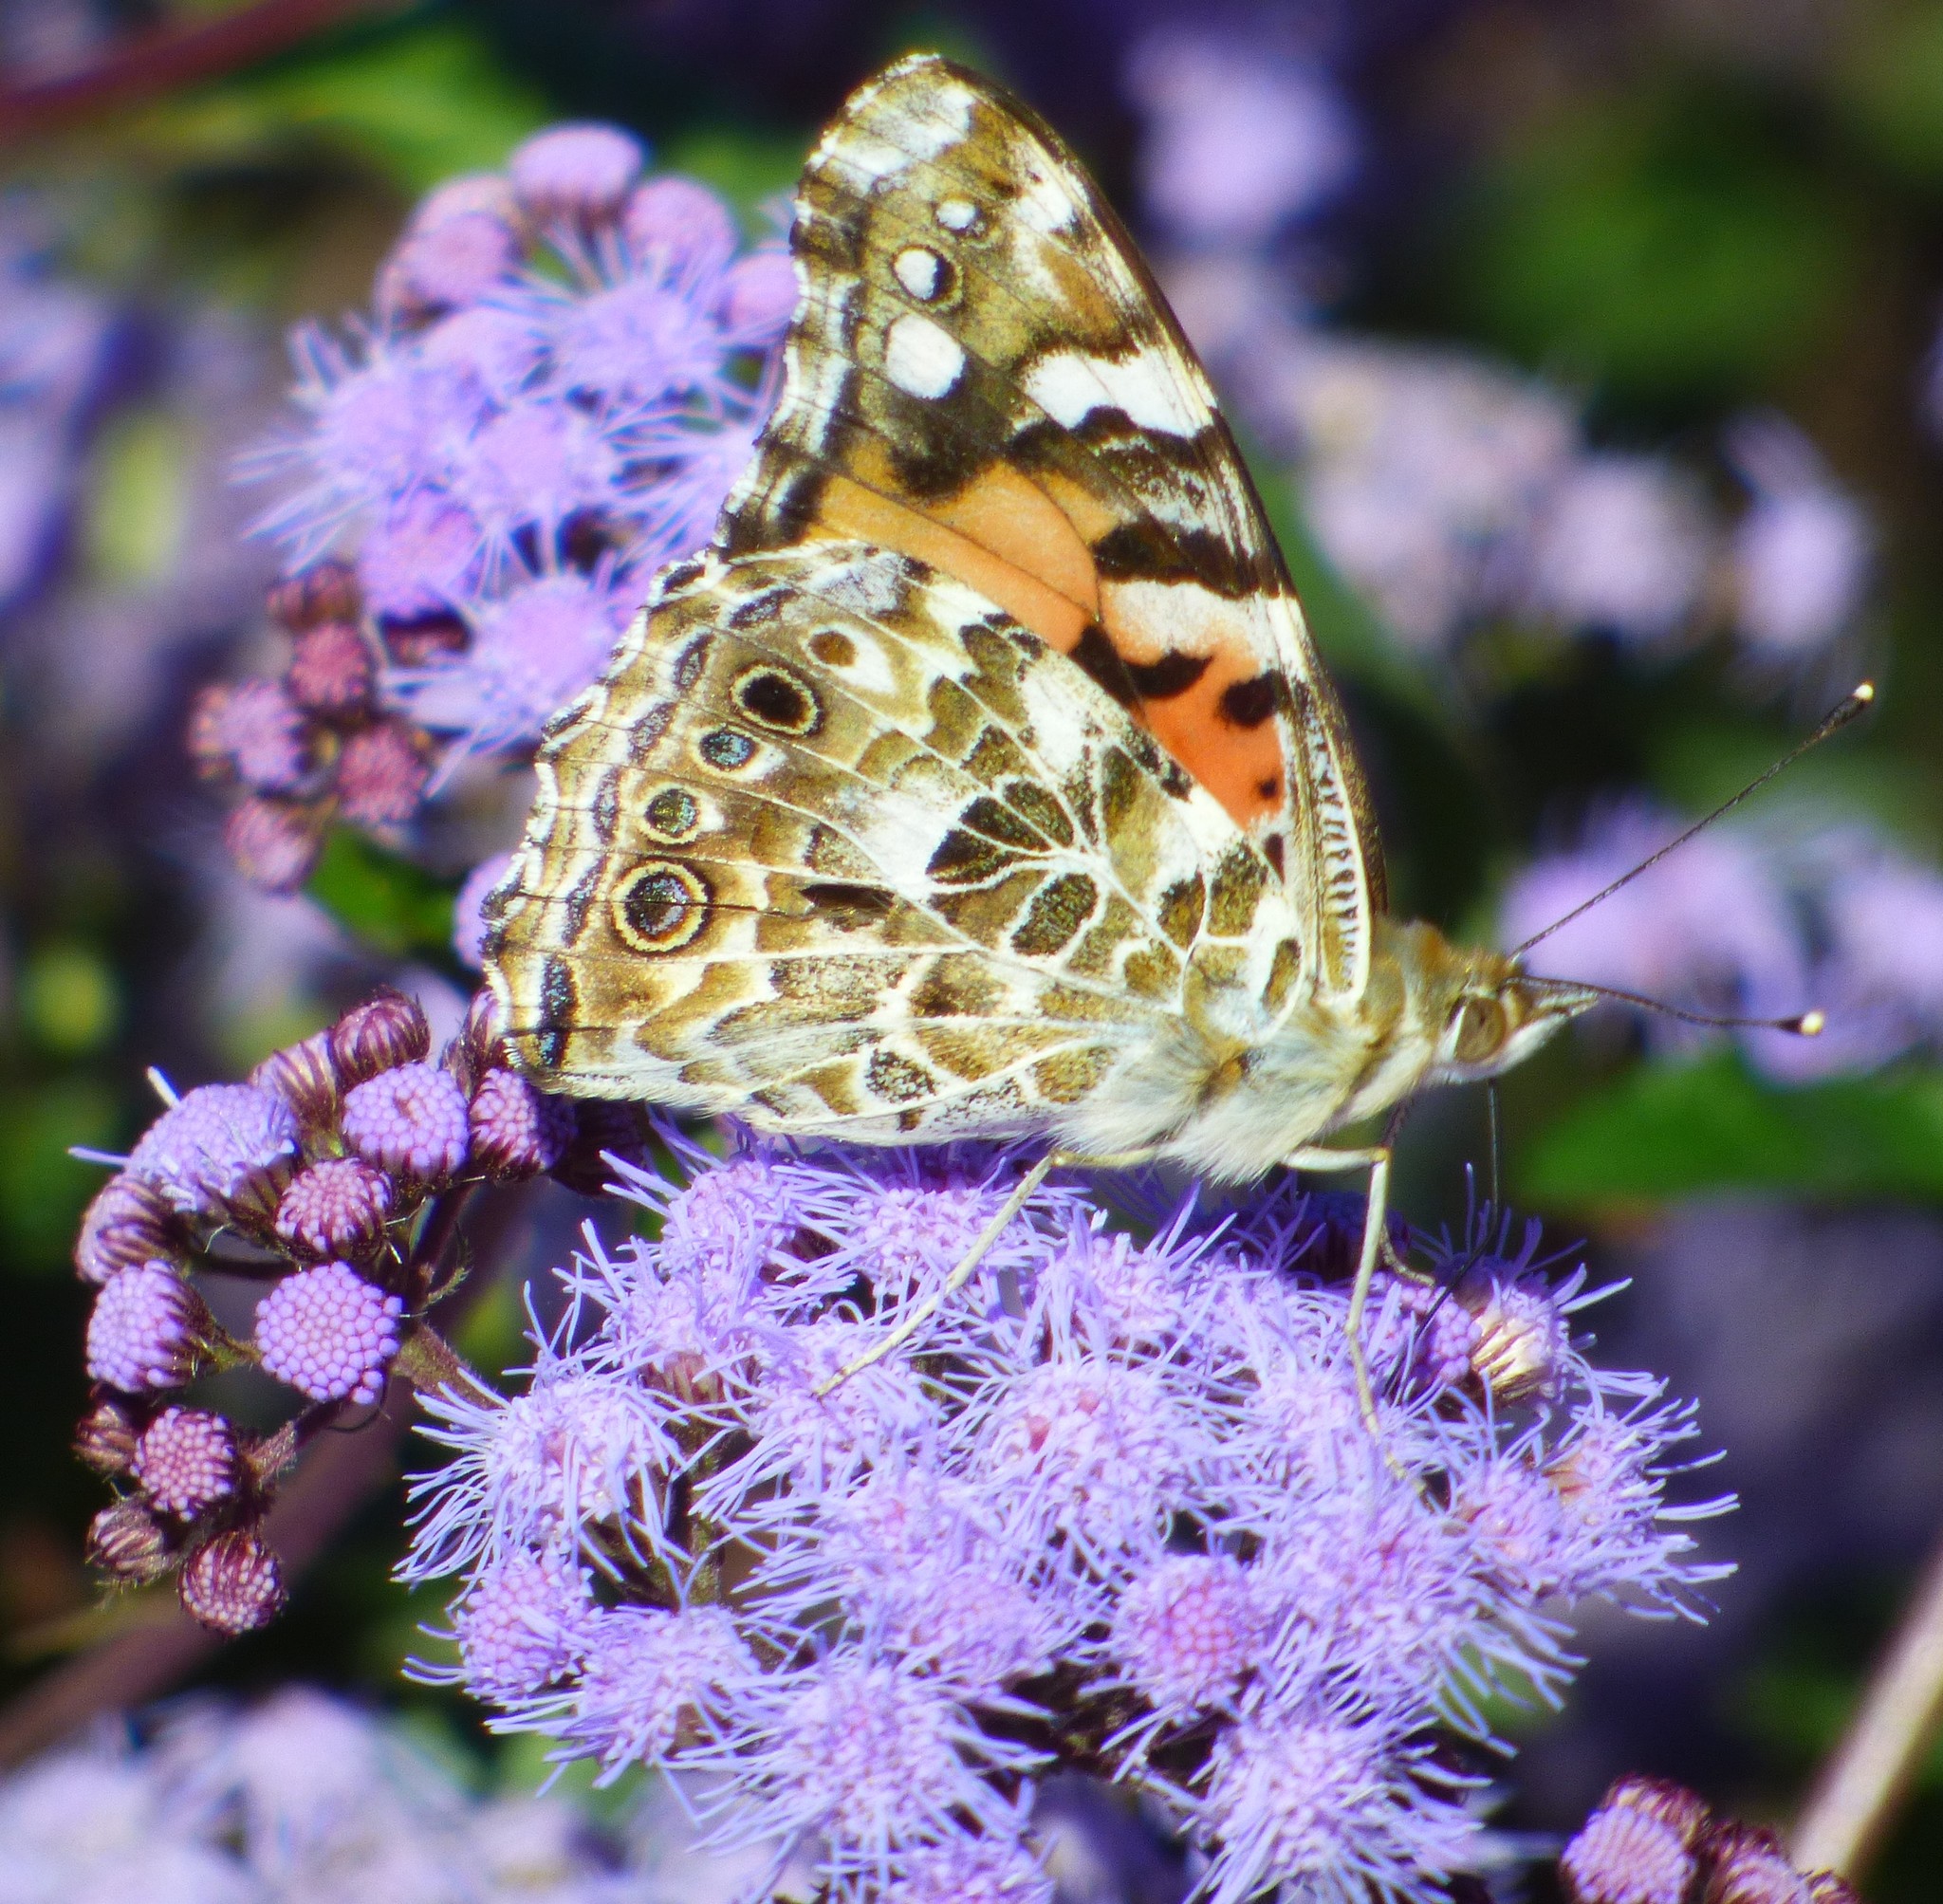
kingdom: Animalia
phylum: Arthropoda
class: Insecta
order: Lepidoptera
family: Nymphalidae
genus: Vanessa
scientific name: Vanessa cardui
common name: Painted lady
